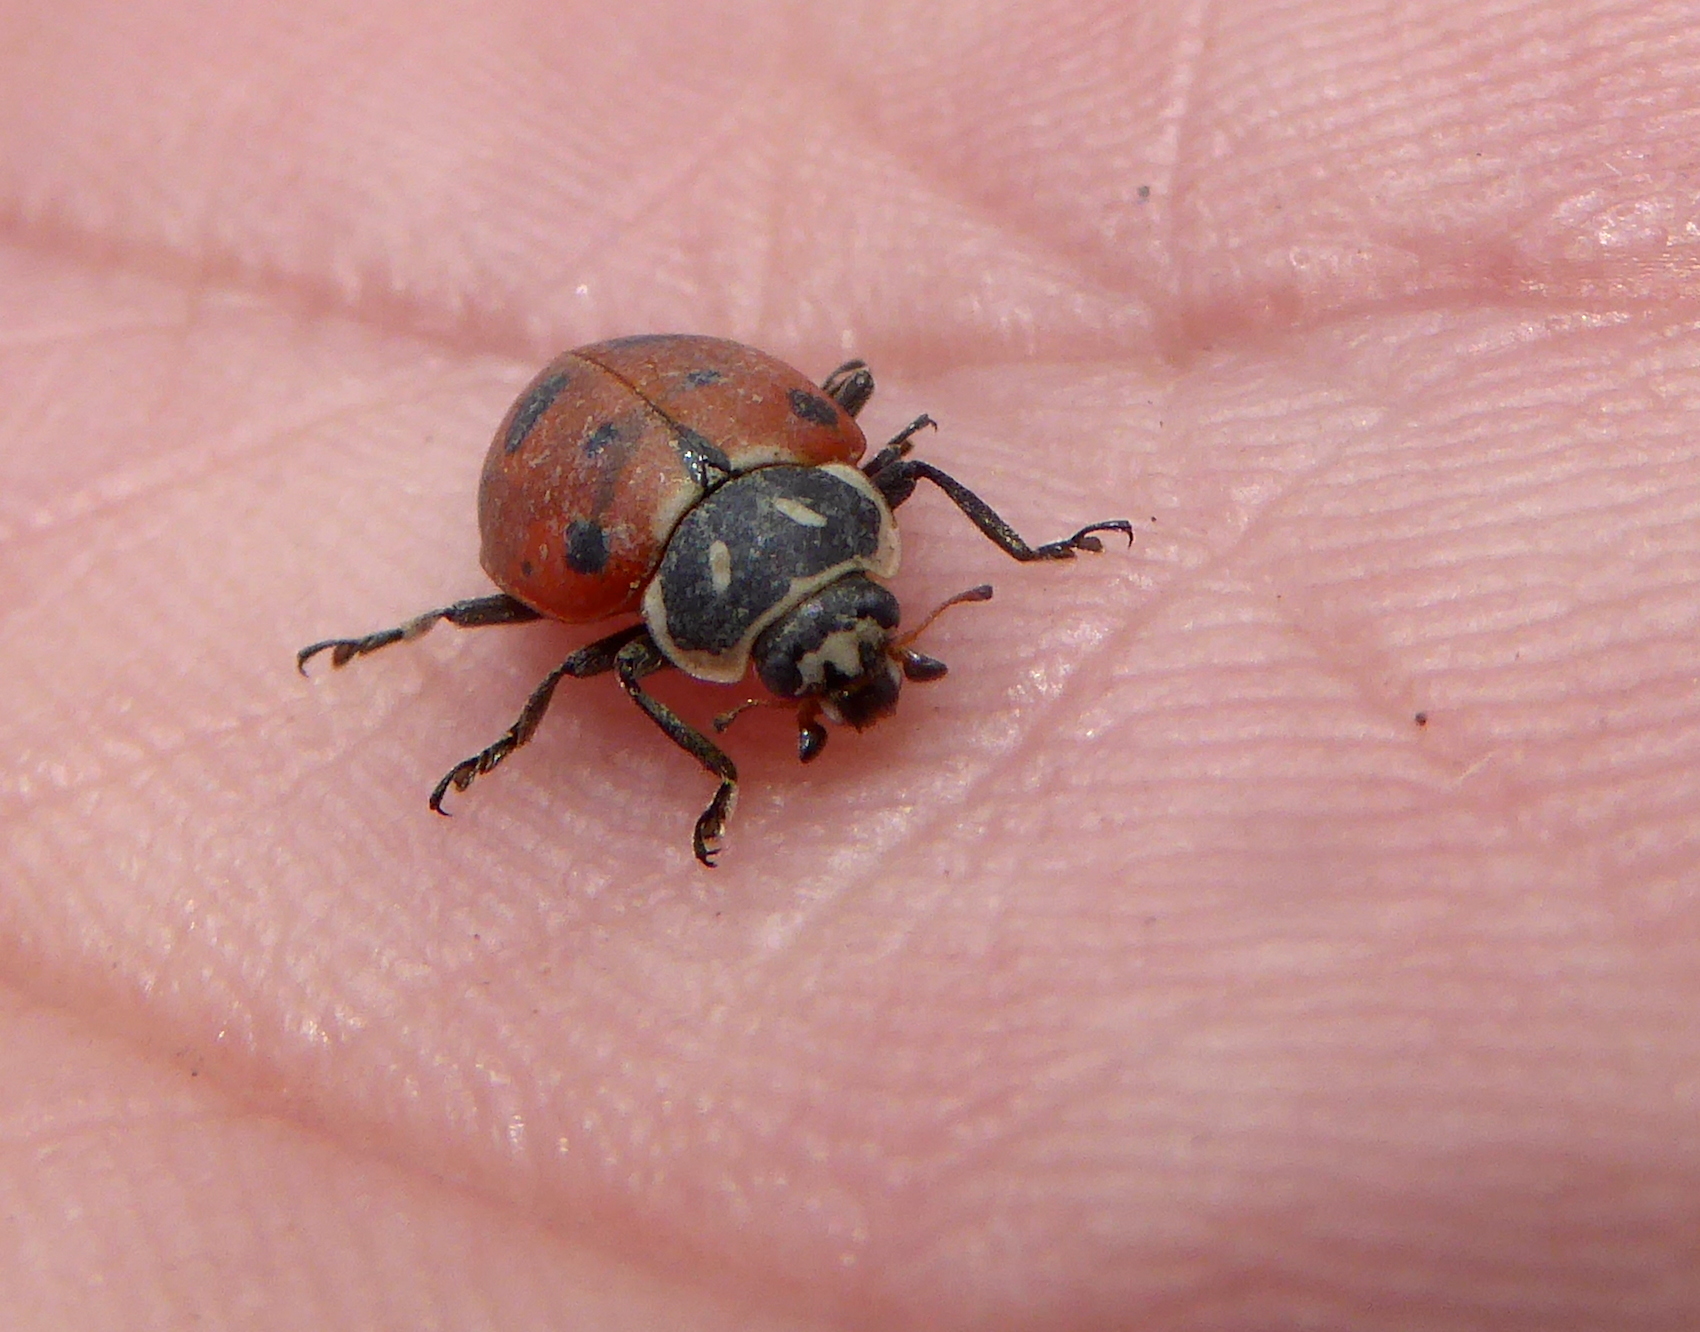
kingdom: Animalia
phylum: Arthropoda
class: Insecta
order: Coleoptera
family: Coccinellidae
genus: Hippodamia
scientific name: Hippodamia convergens
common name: Convergent lady beetle
